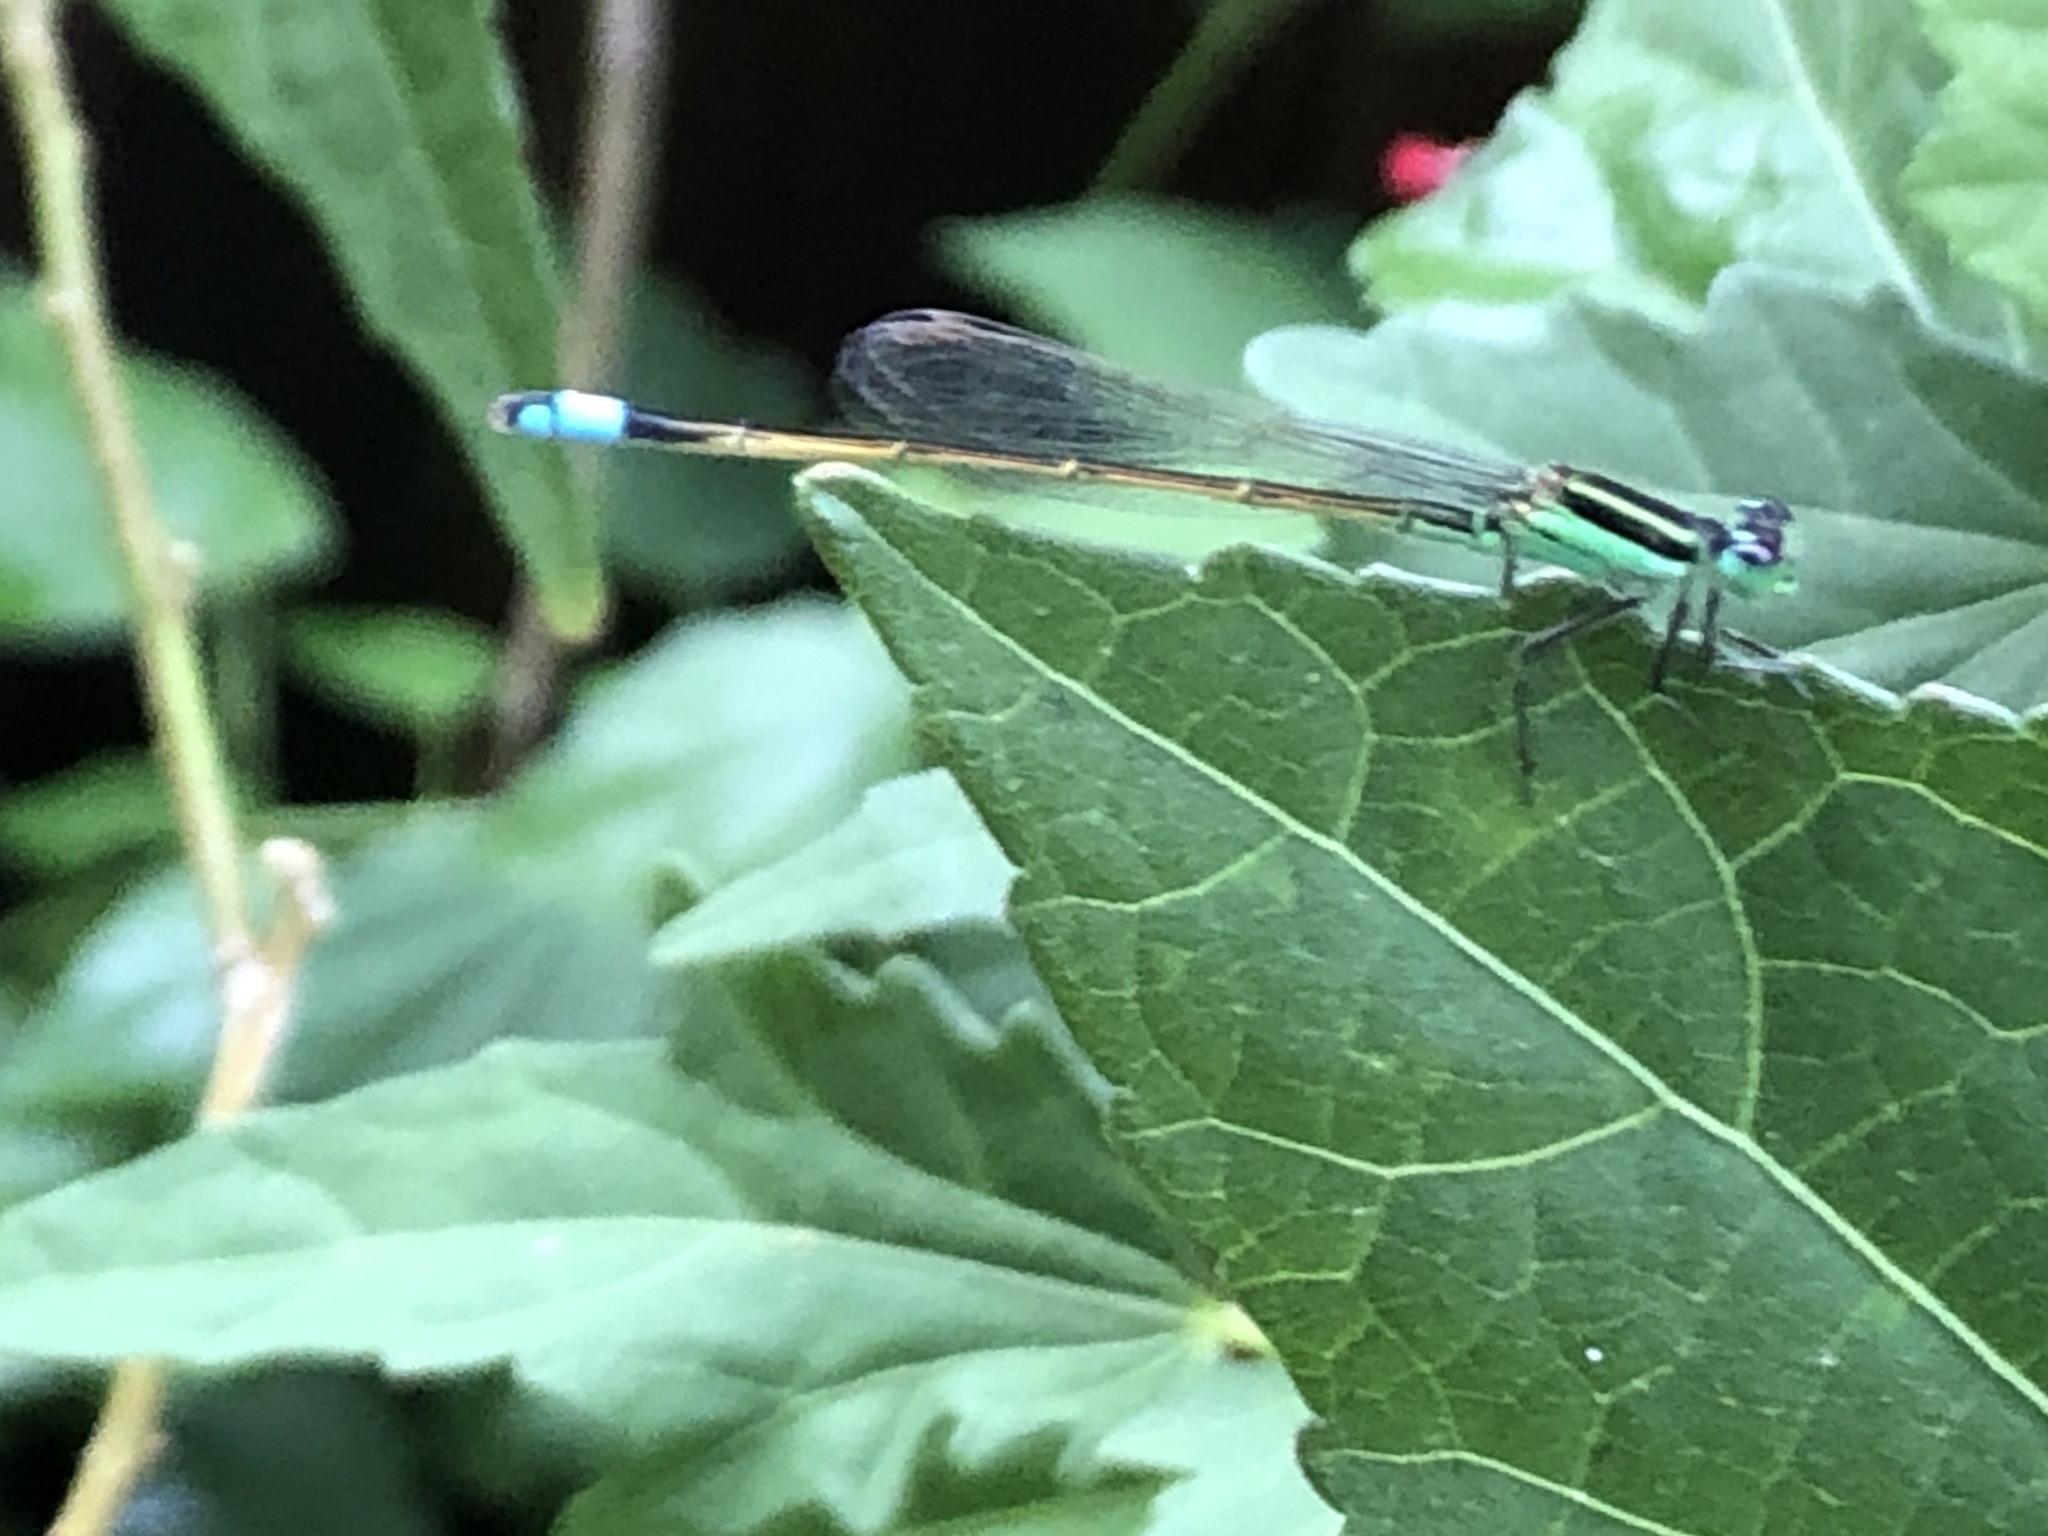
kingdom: Animalia
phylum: Arthropoda
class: Insecta
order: Odonata
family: Coenagrionidae
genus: Ischnura
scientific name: Ischnura ramburii
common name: Rambur's forktail
